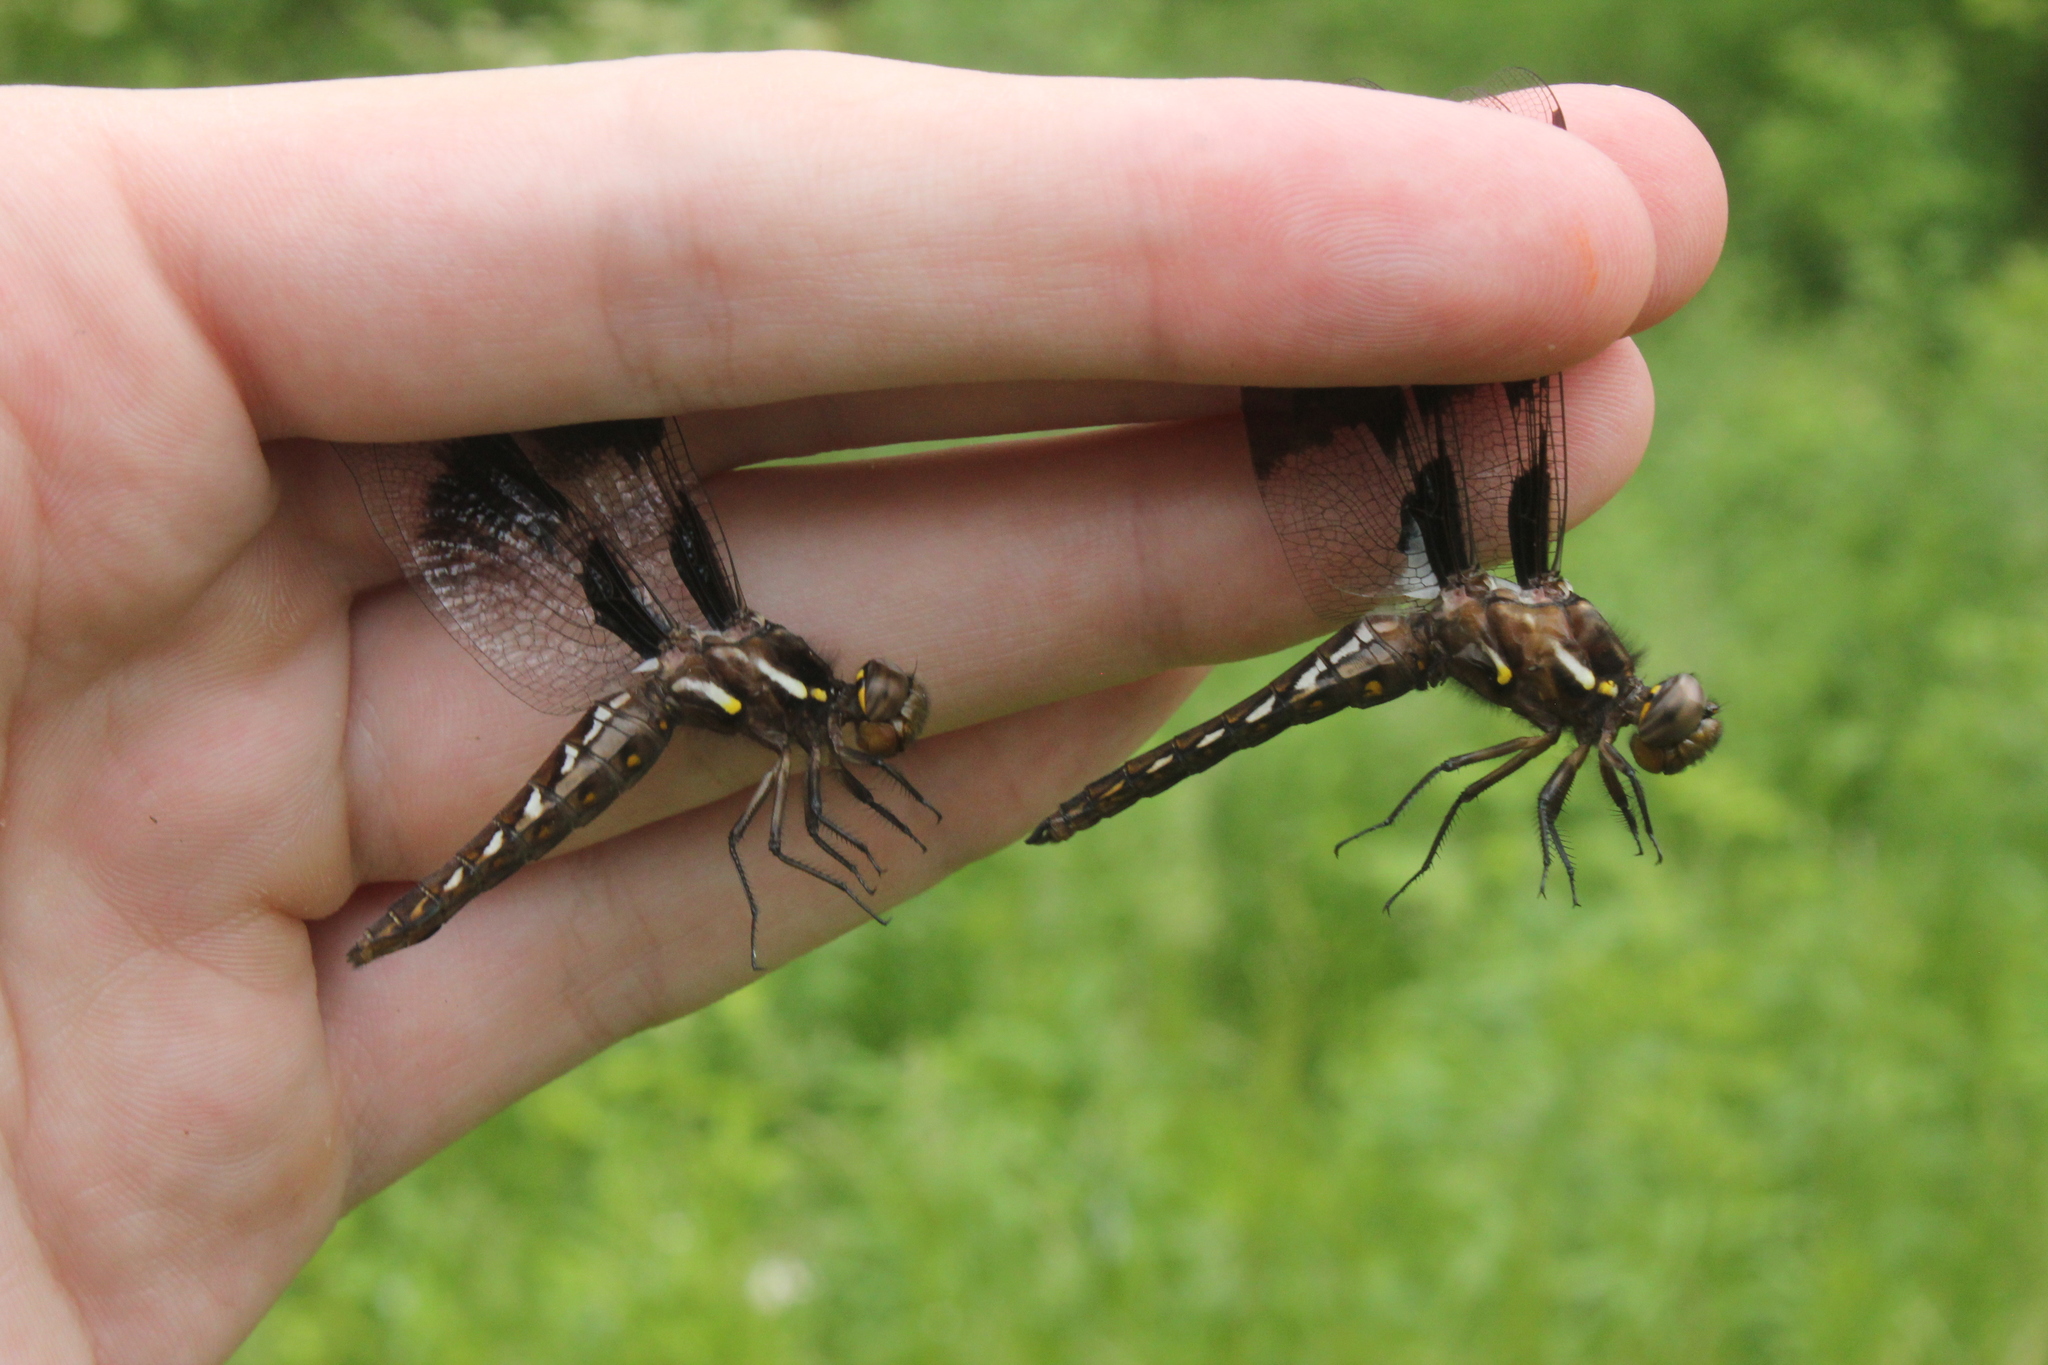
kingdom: Animalia
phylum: Arthropoda
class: Insecta
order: Odonata
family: Libellulidae
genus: Plathemis
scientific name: Plathemis lydia
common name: Common whitetail
